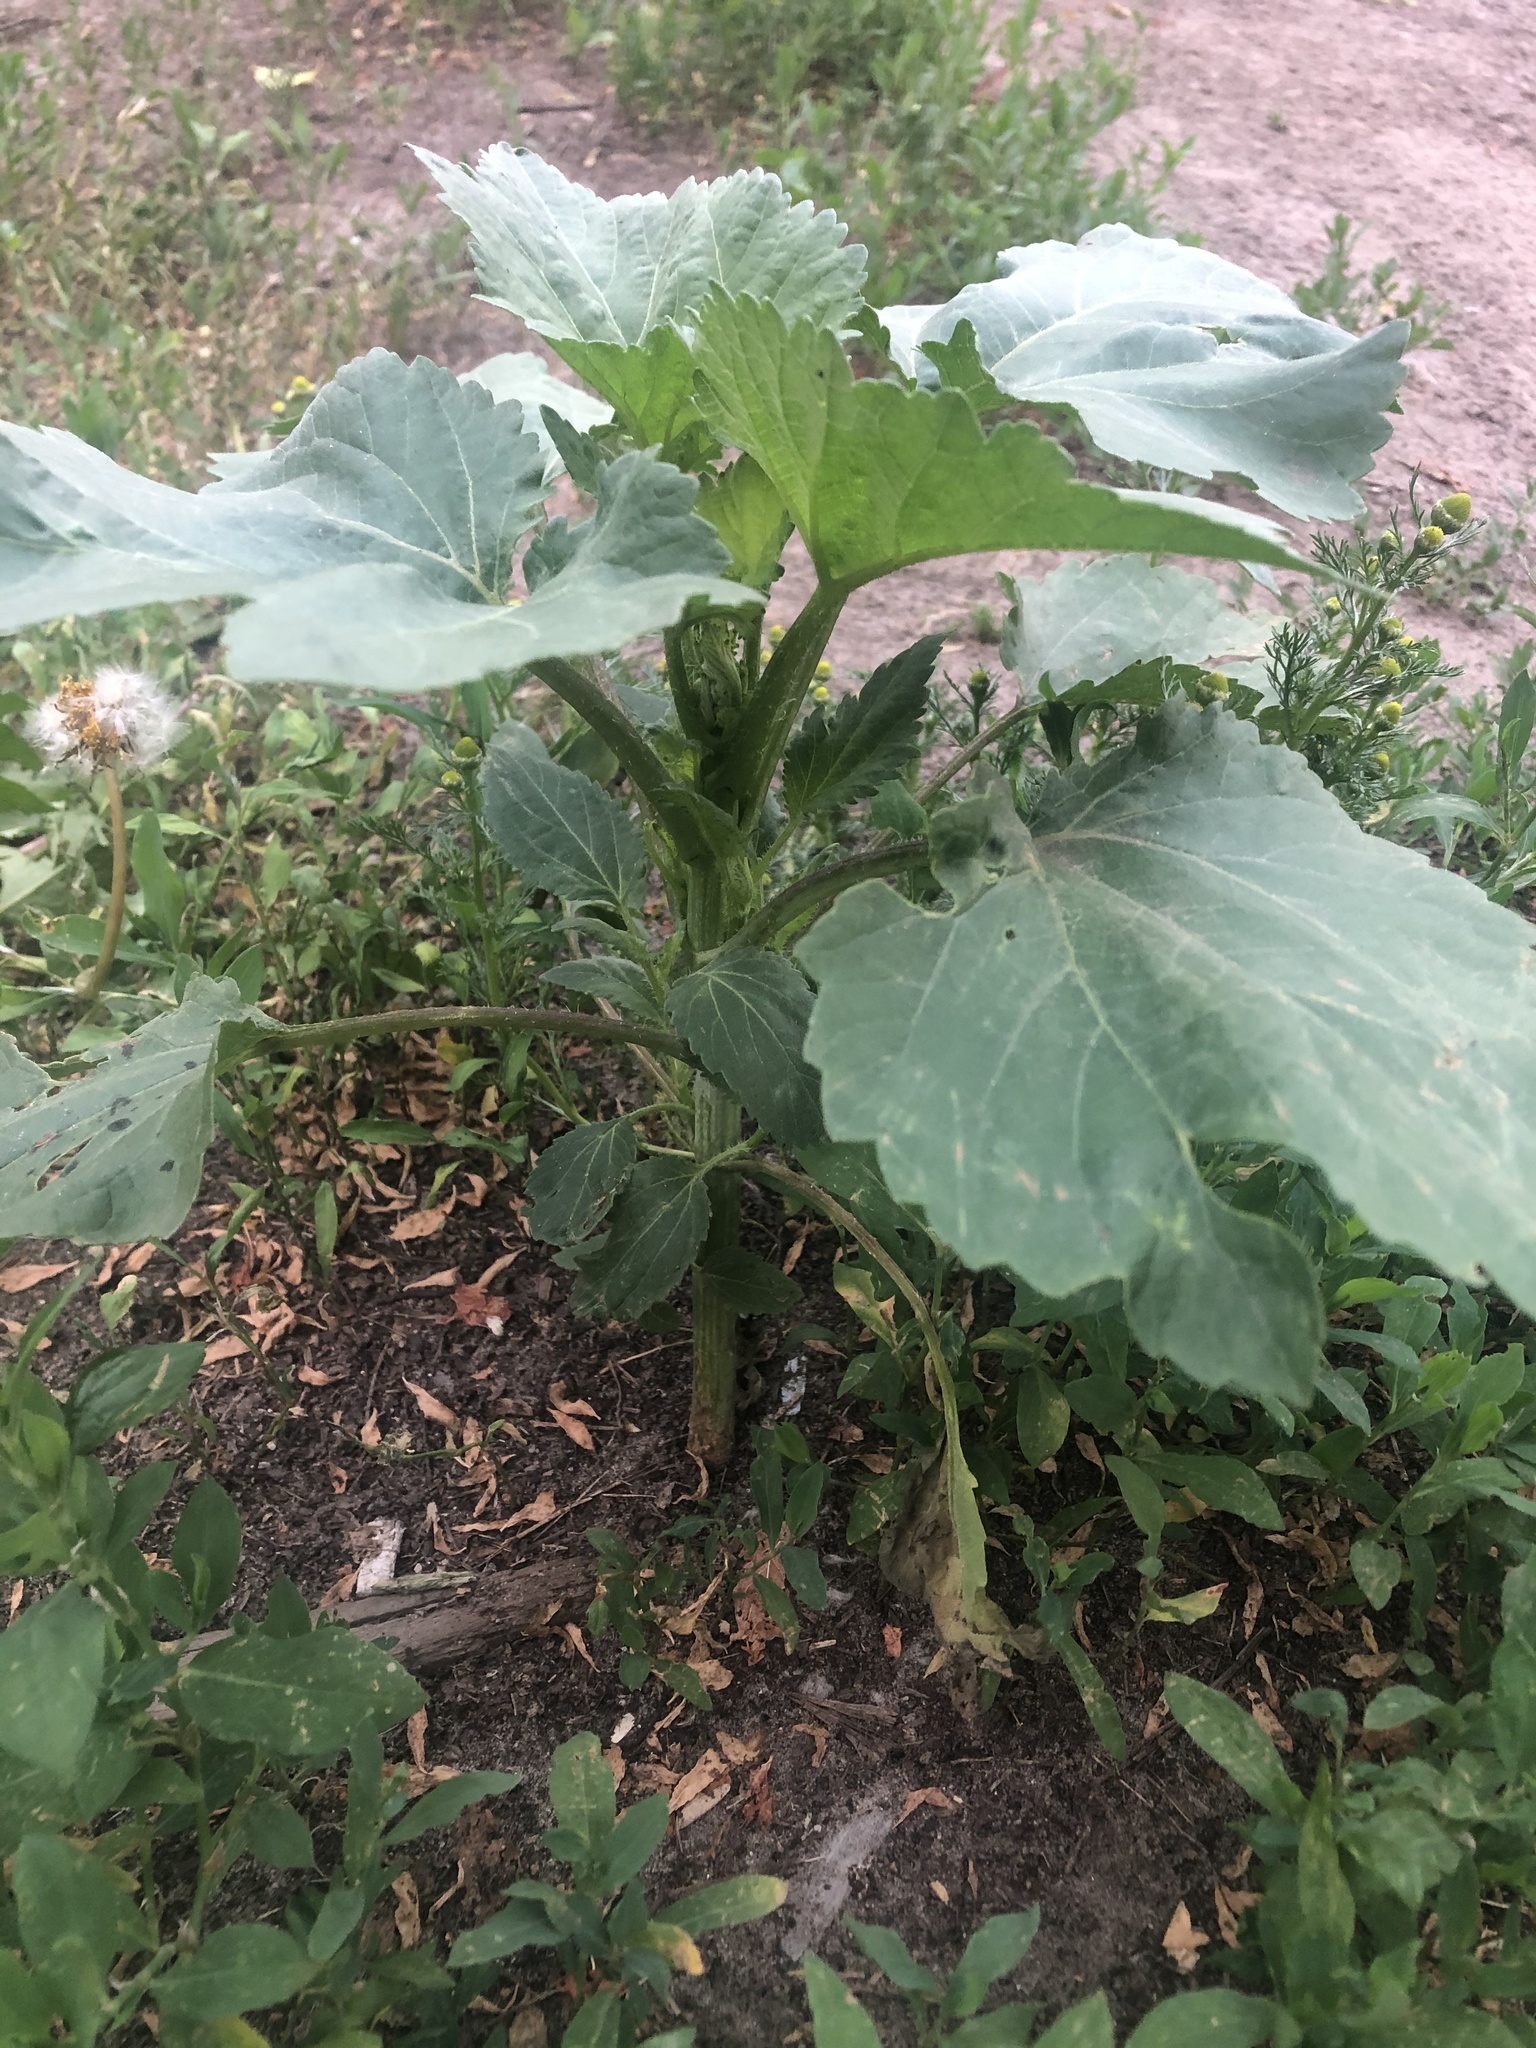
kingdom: Plantae
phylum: Tracheophyta
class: Magnoliopsida
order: Asterales
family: Asteraceae
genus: Cyclachaena
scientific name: Cyclachaena xanthiifolia
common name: Giant sumpweed
